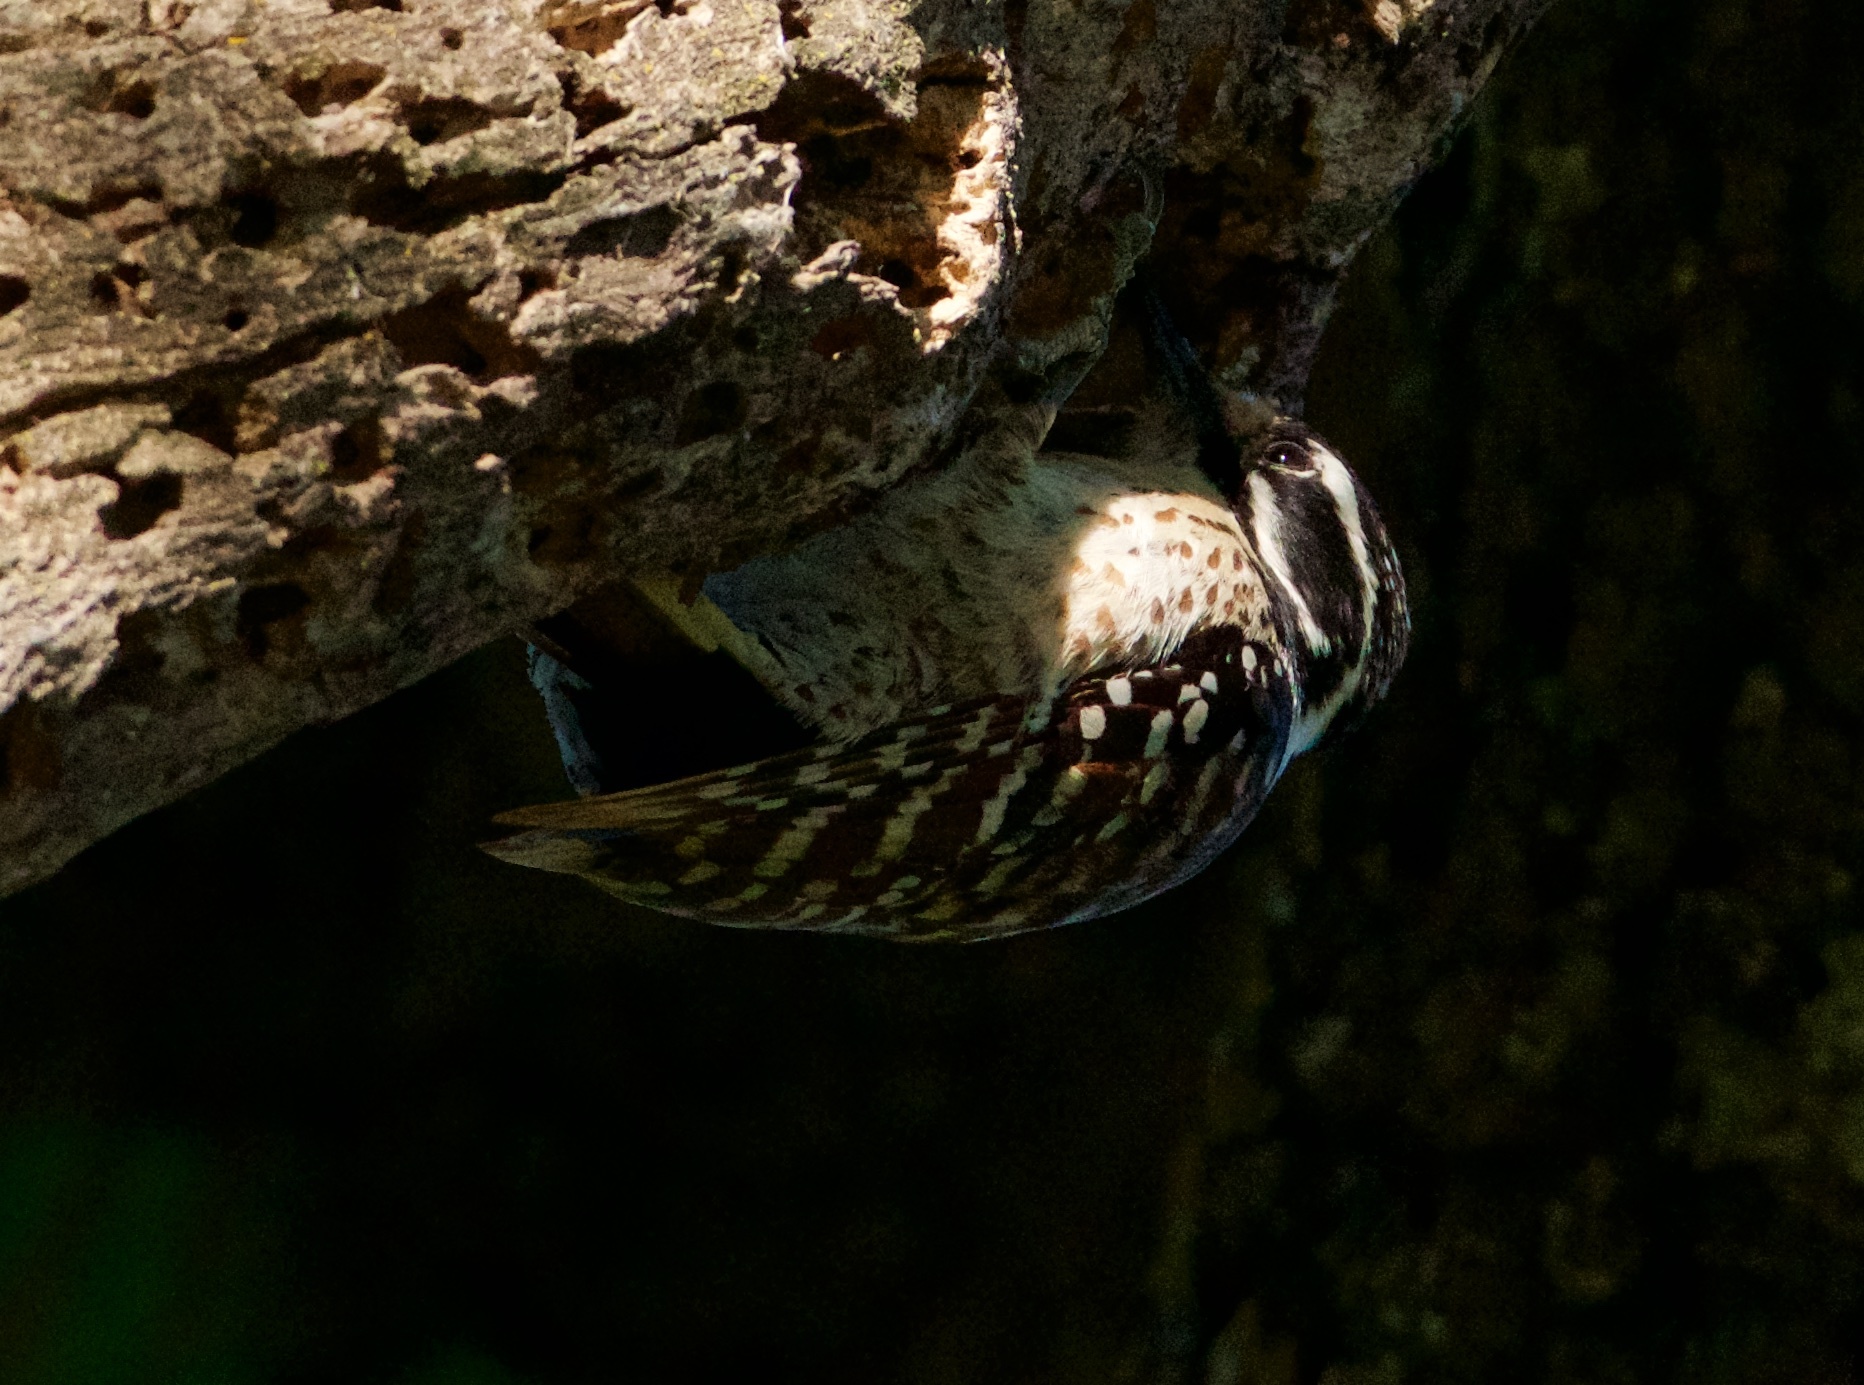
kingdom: Animalia
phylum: Chordata
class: Aves
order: Piciformes
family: Picidae
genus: Dryobates
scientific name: Dryobates nuttallii
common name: Nuttall's woodpecker
